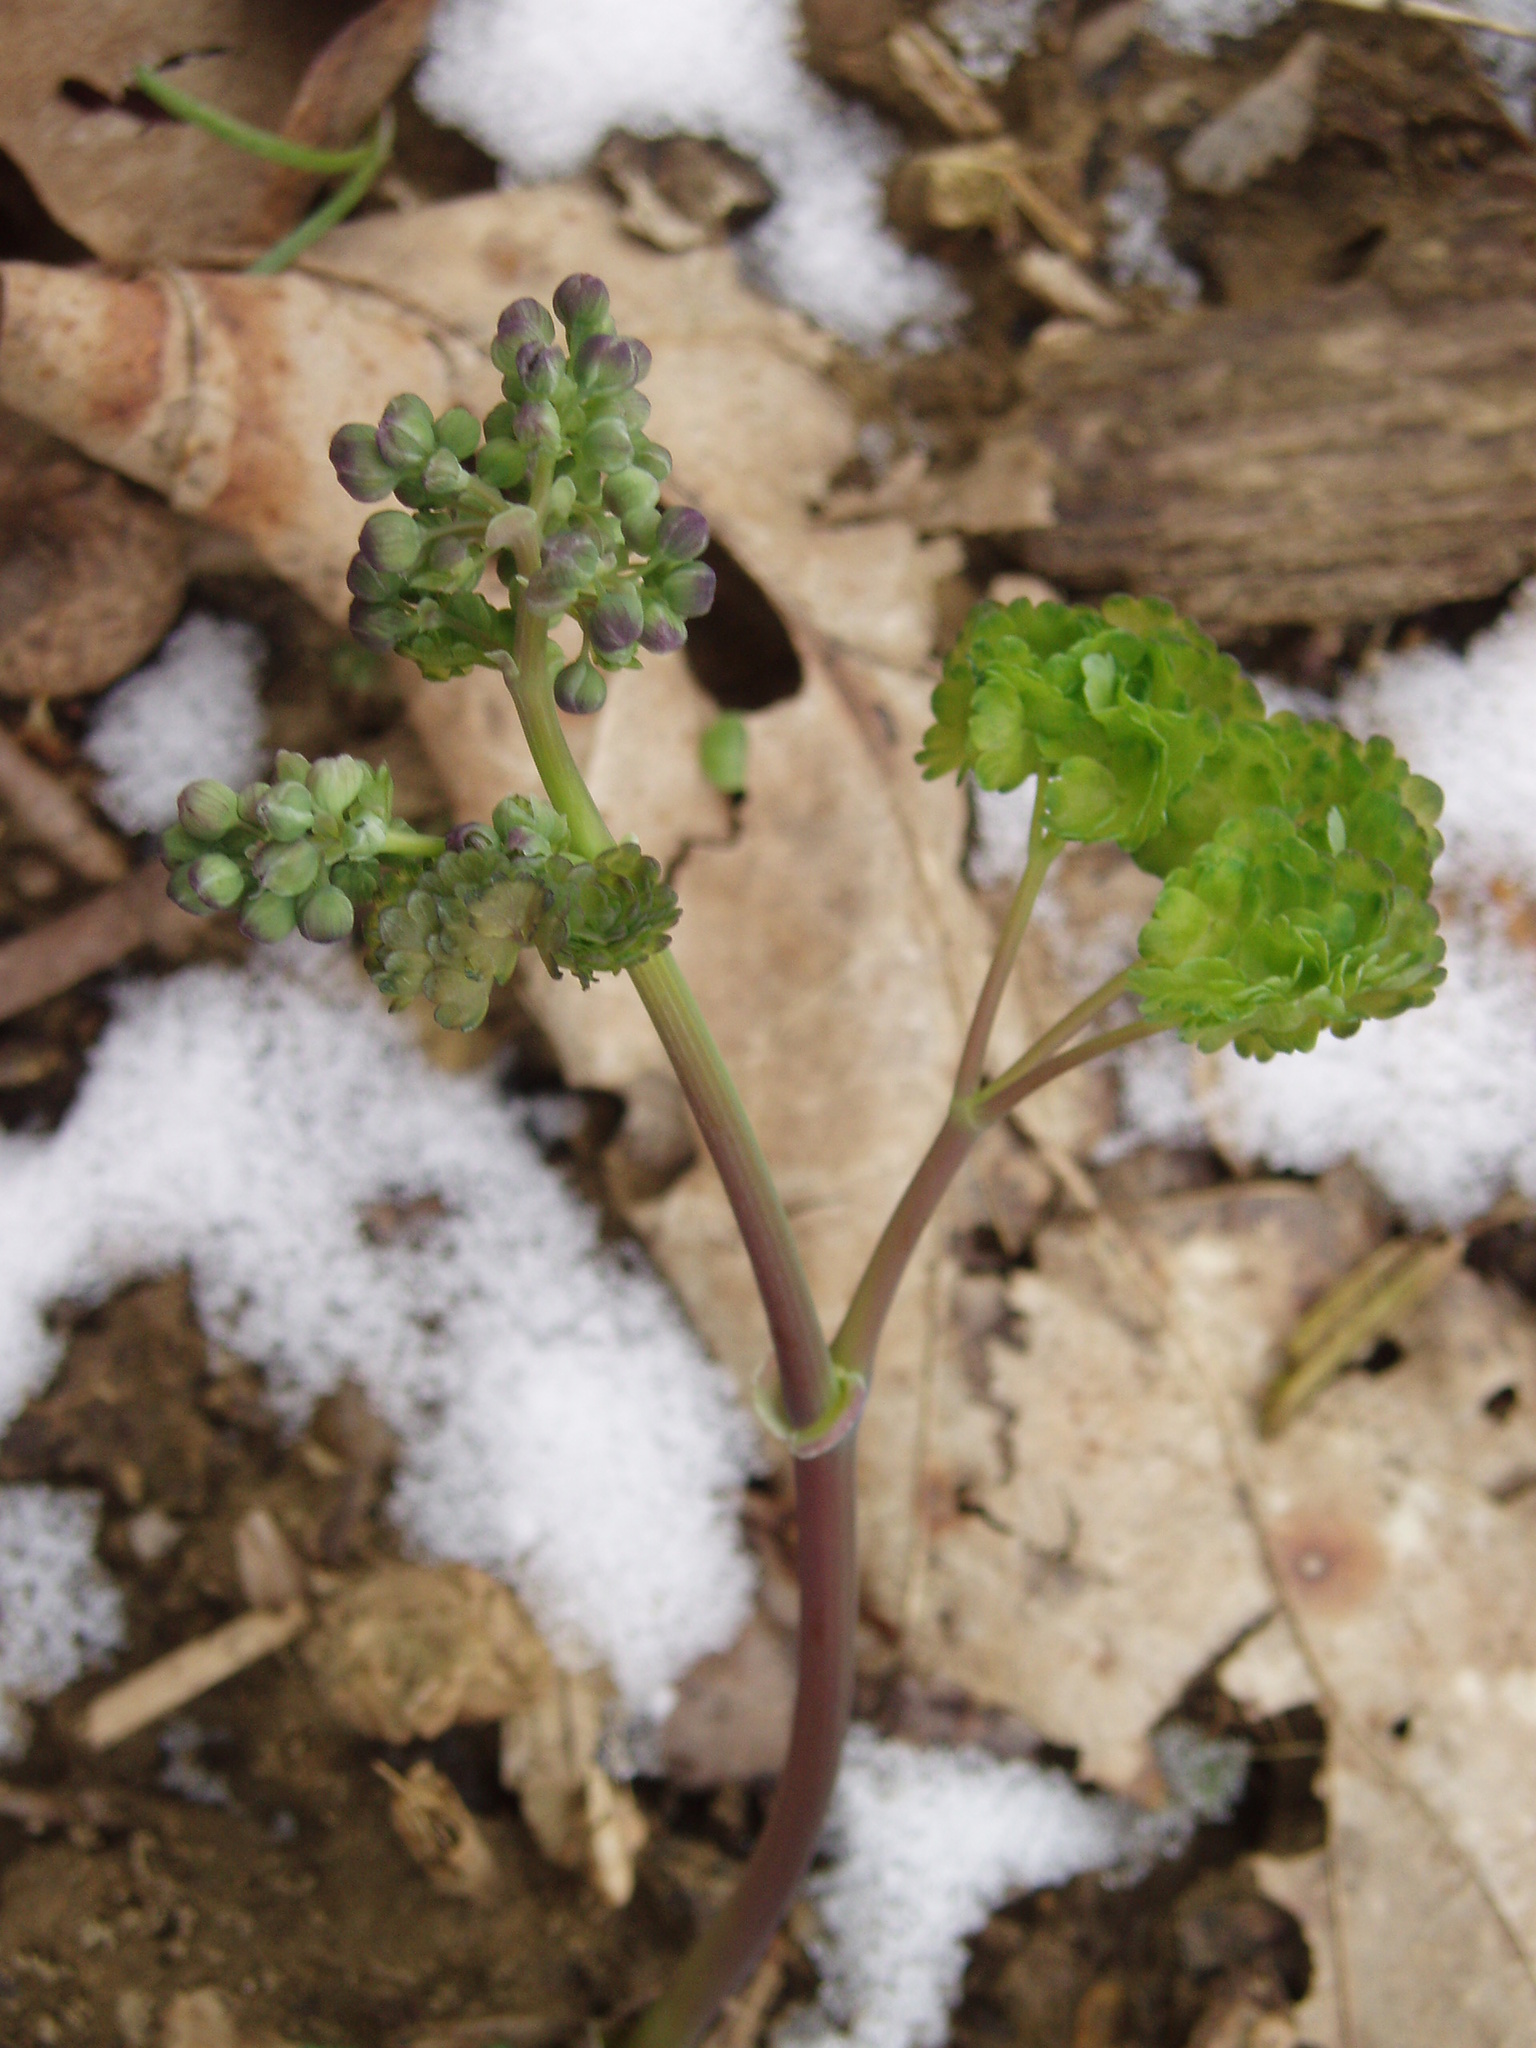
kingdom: Plantae
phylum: Tracheophyta
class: Magnoliopsida
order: Ranunculales
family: Ranunculaceae
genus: Thalictrum
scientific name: Thalictrum dioicum
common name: Early meadow-rue
